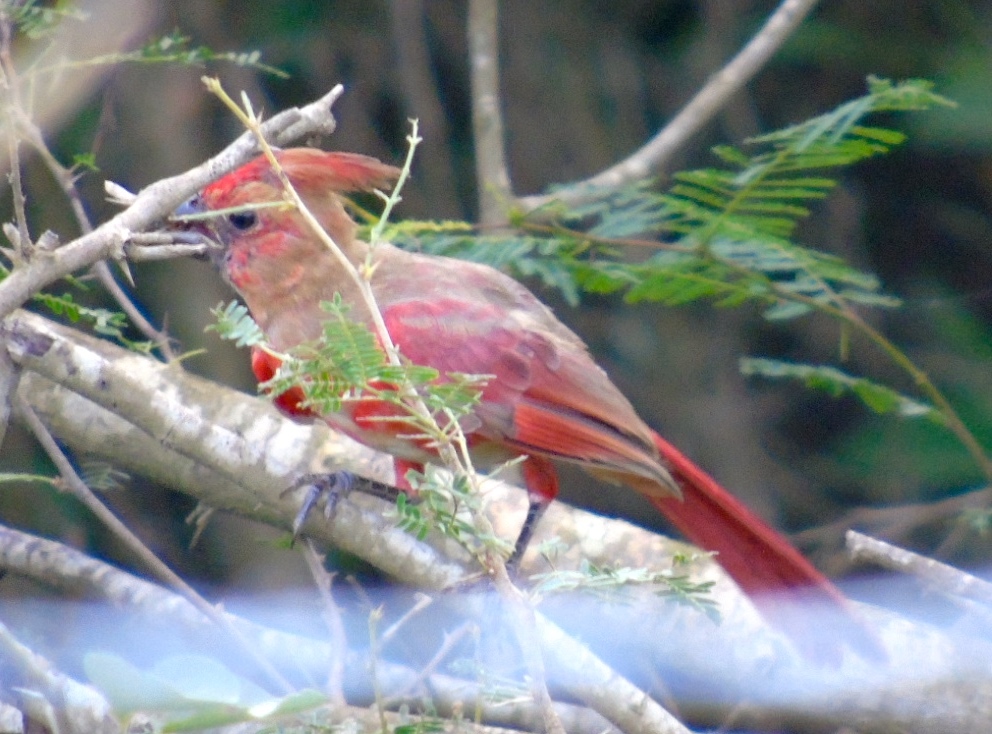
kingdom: Animalia
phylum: Chordata
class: Aves
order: Passeriformes
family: Cardinalidae
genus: Cardinalis
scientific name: Cardinalis cardinalis
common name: Northern cardinal
